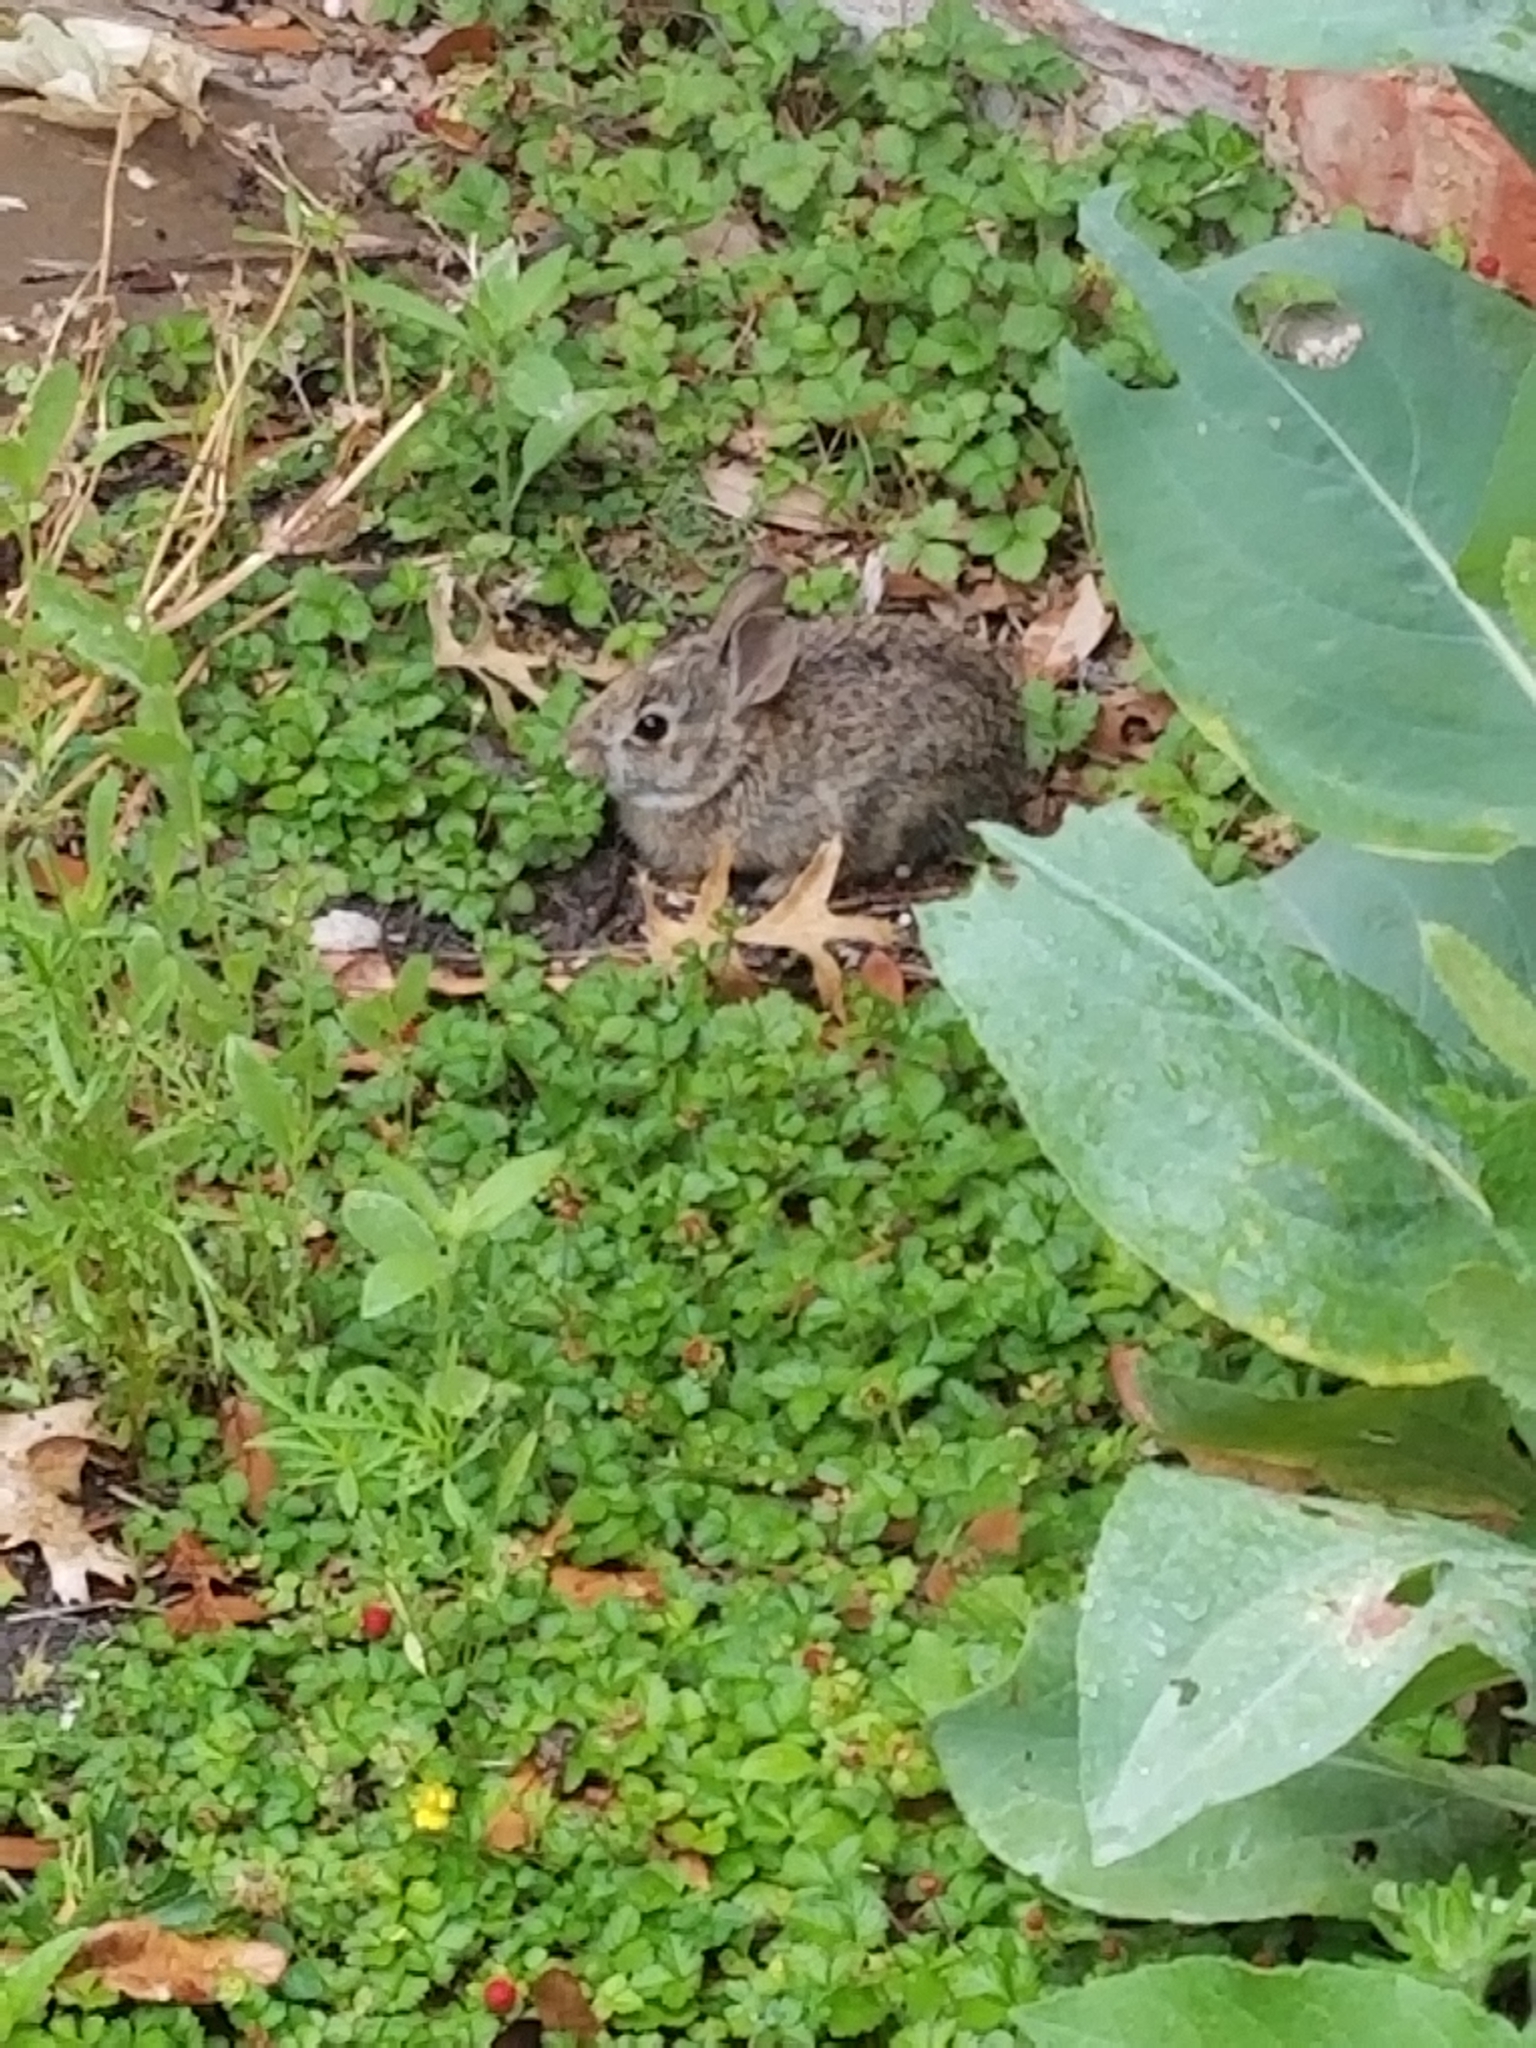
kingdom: Animalia
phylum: Chordata
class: Mammalia
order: Lagomorpha
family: Leporidae
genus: Sylvilagus
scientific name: Sylvilagus floridanus
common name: Eastern cottontail
